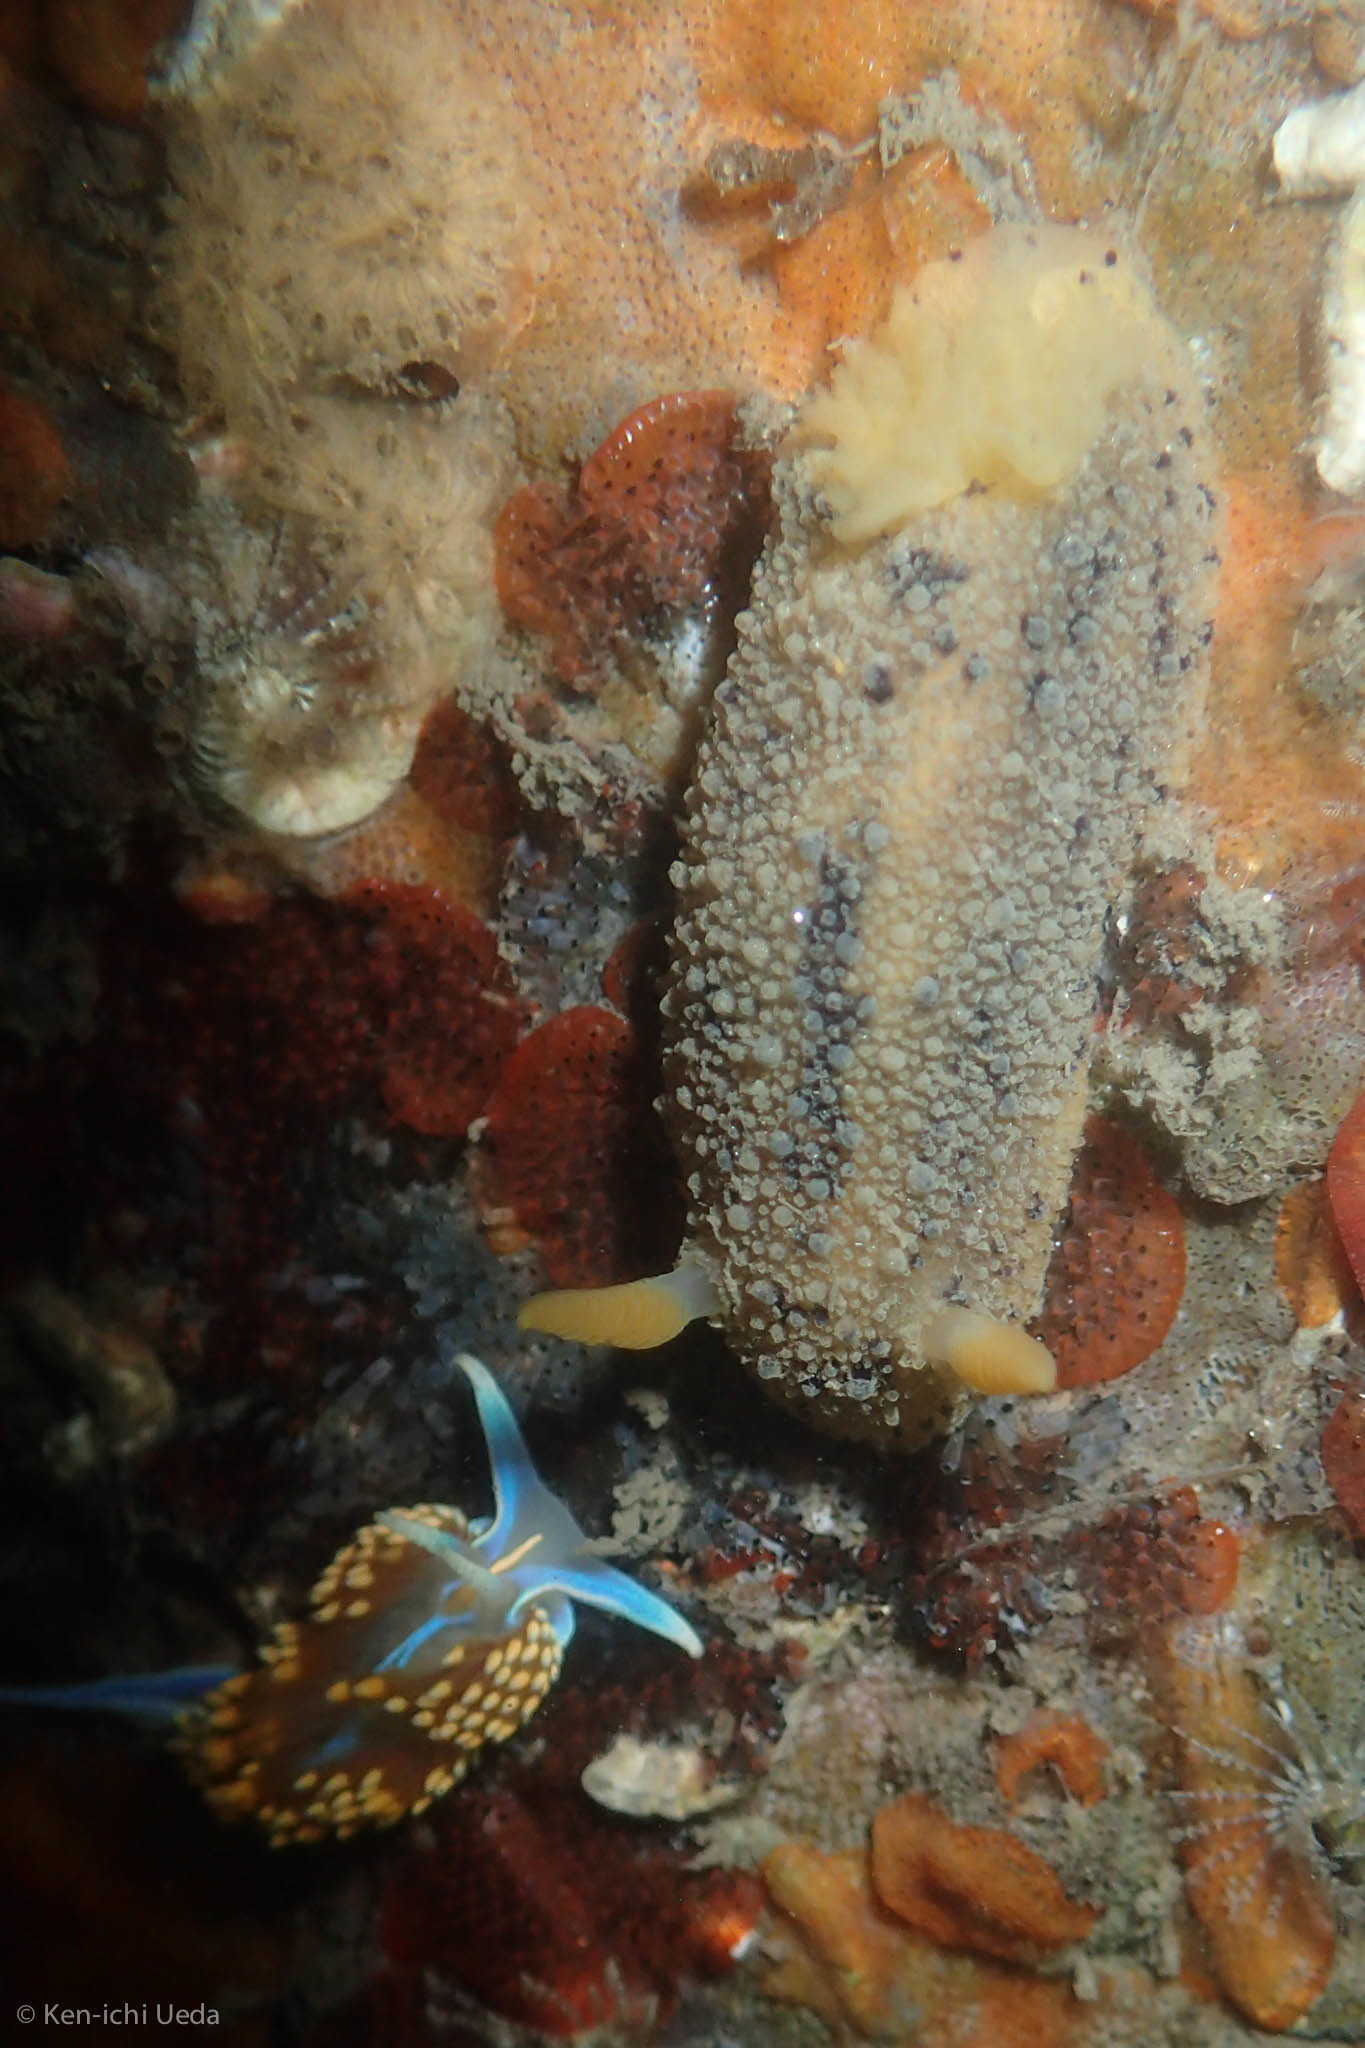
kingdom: Animalia
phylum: Mollusca
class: Gastropoda
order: Nudibranchia
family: Dorididae
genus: Doris
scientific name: Doris montereyensis
